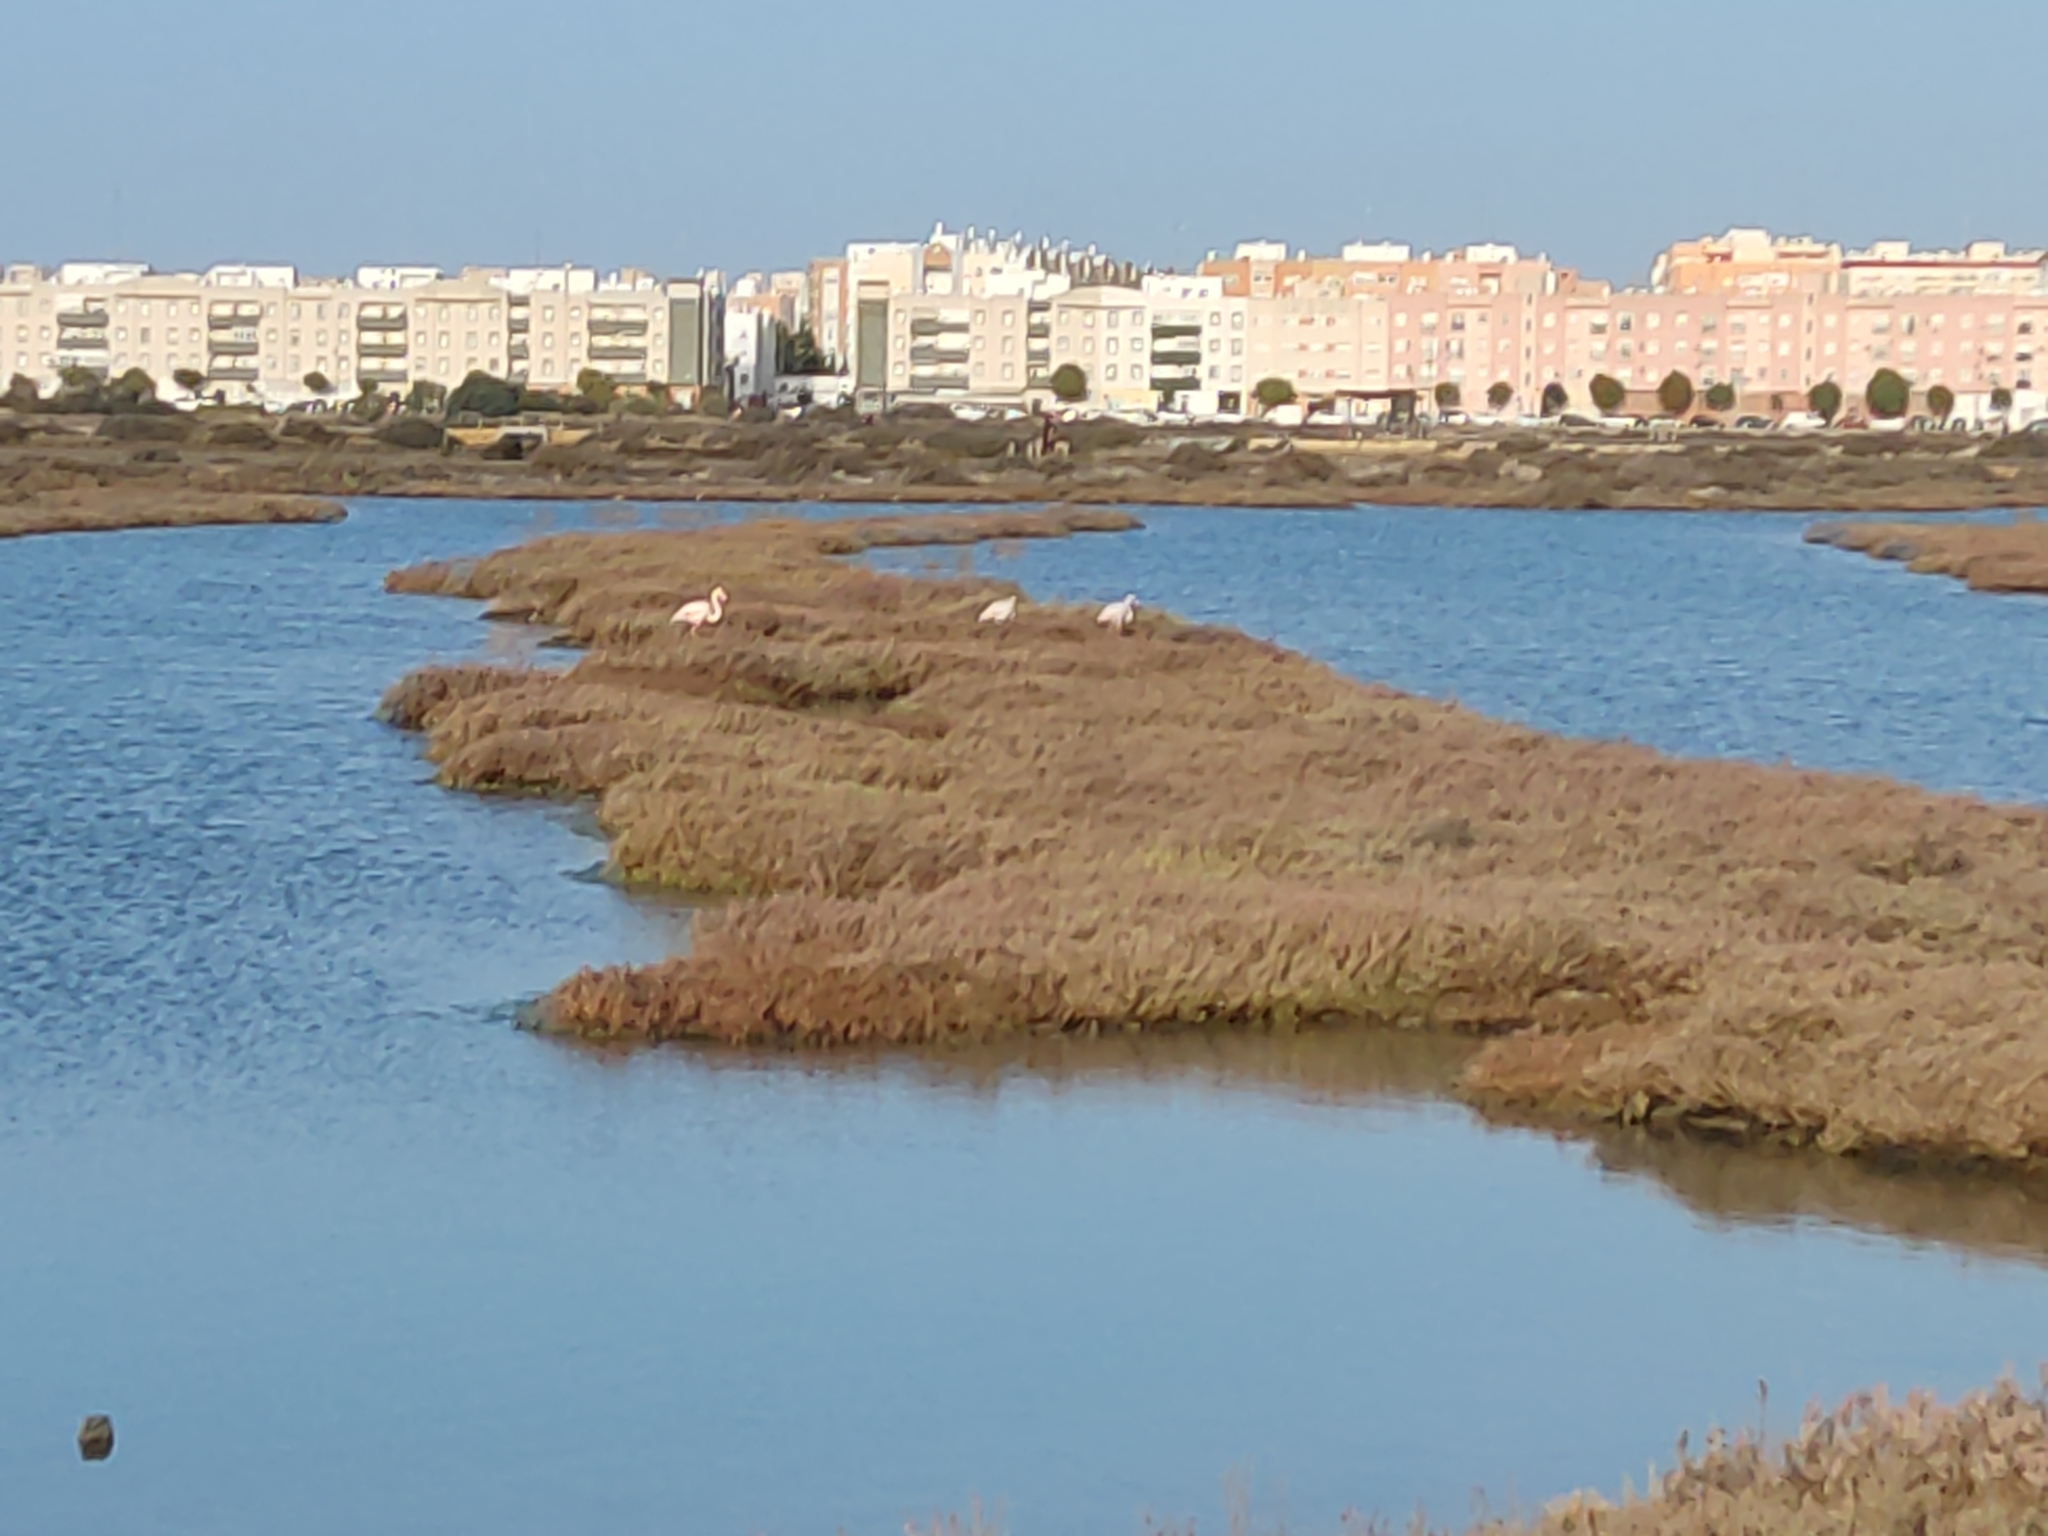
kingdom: Animalia
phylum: Chordata
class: Aves
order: Phoenicopteriformes
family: Phoenicopteridae
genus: Phoenicopterus
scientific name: Phoenicopterus roseus
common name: Greater flamingo
